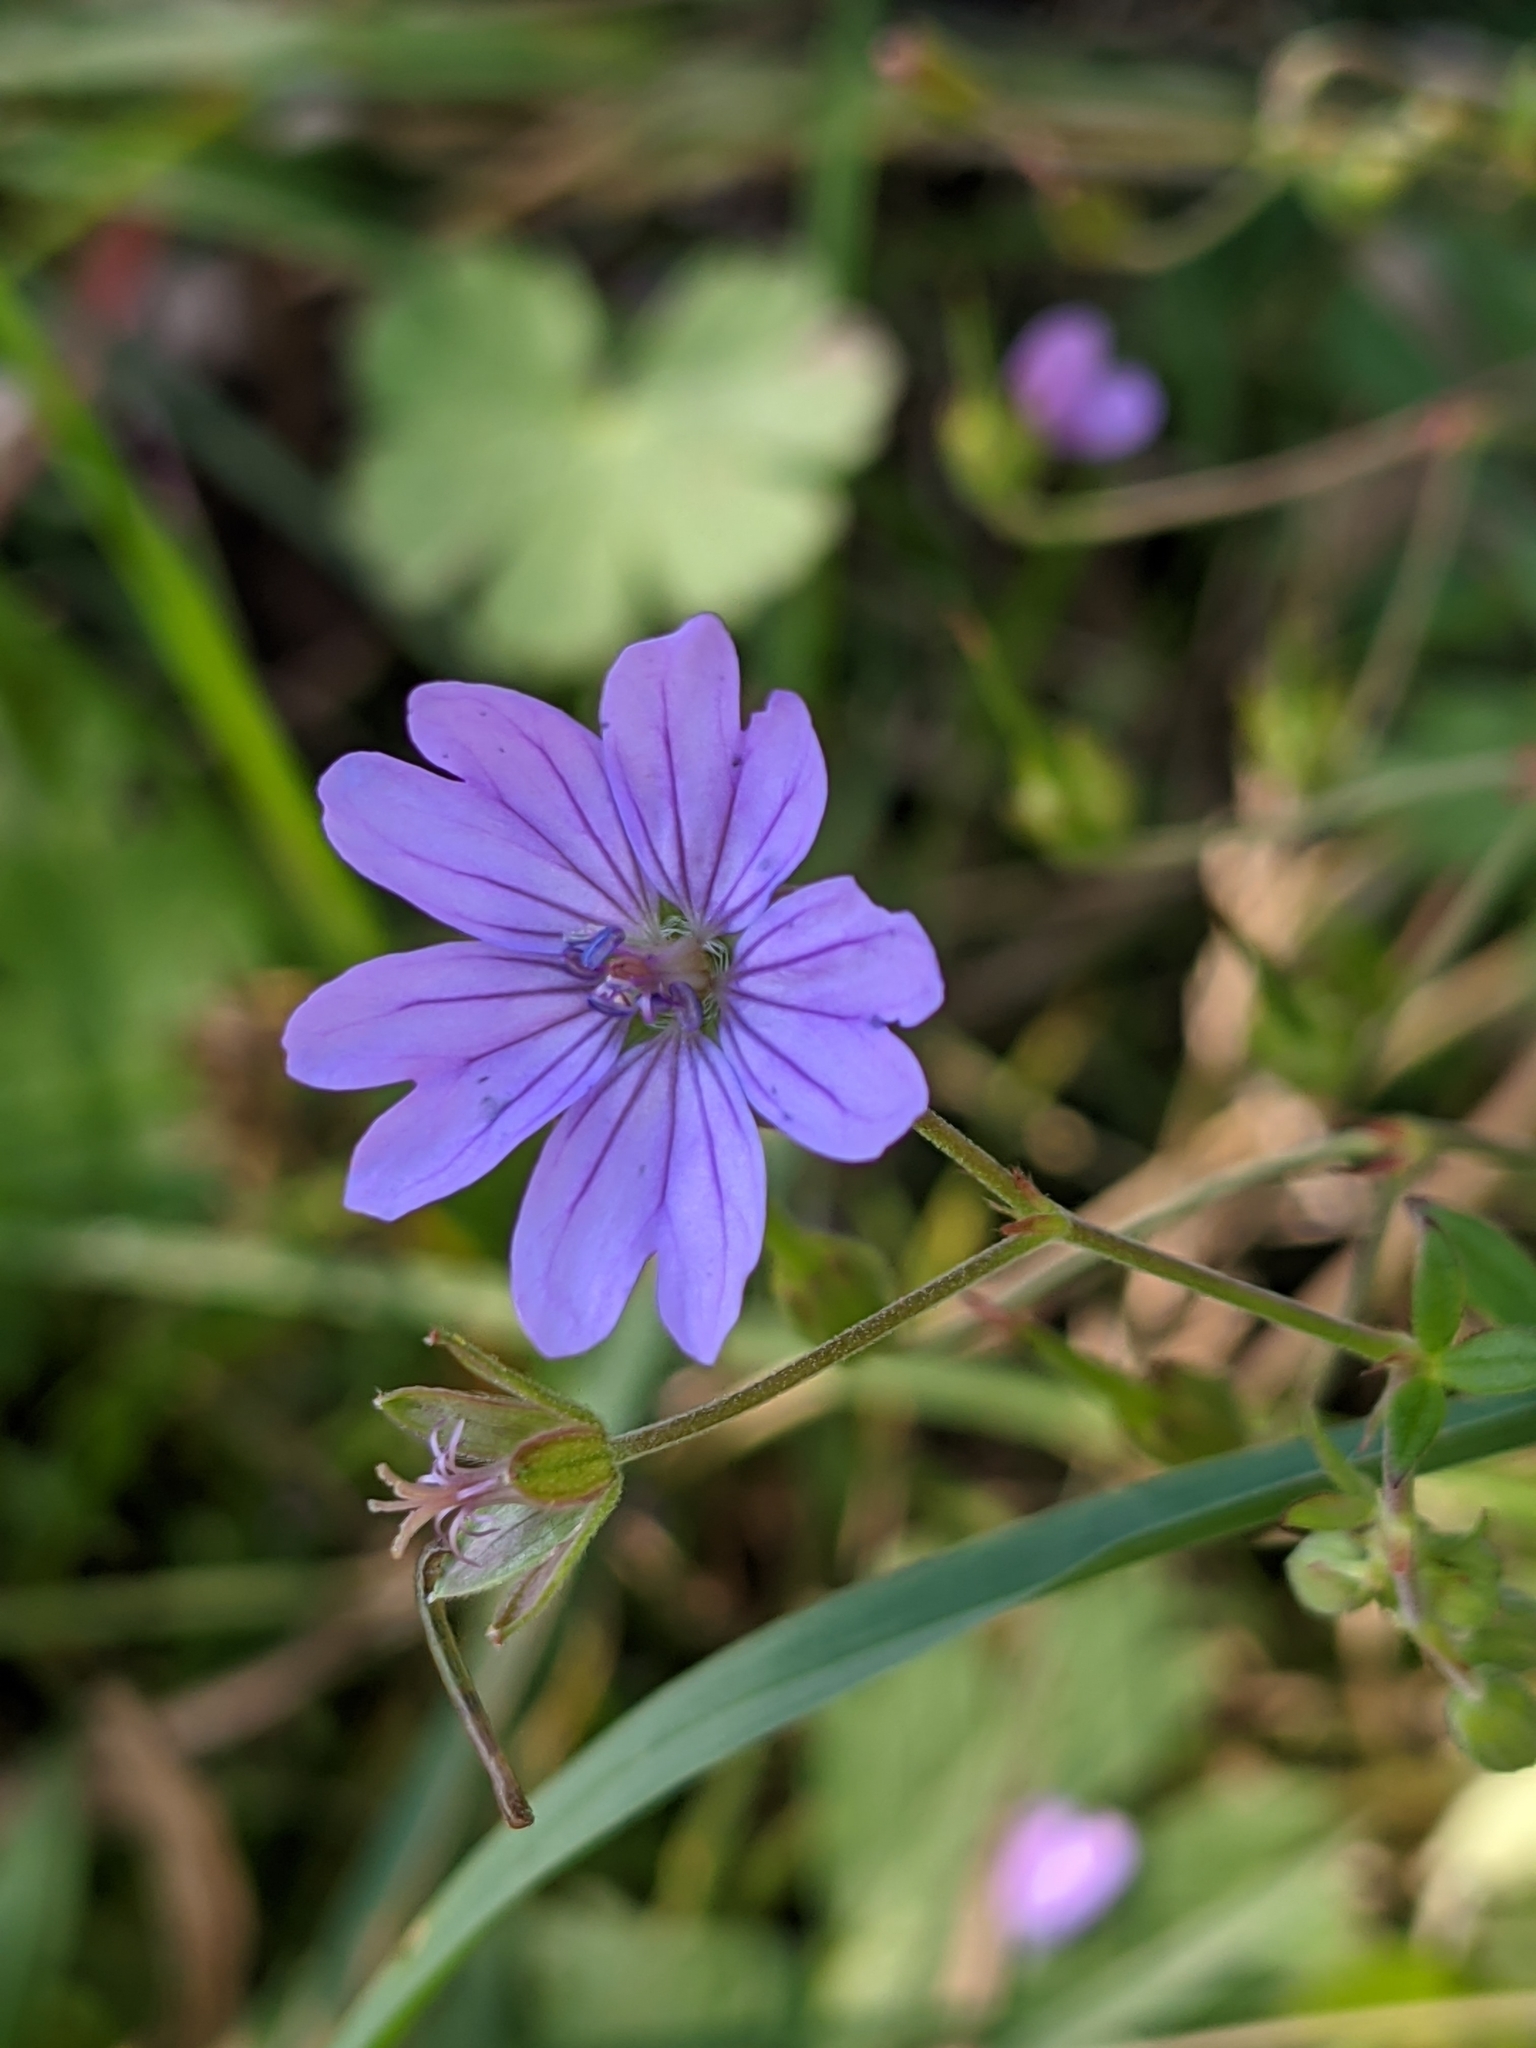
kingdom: Plantae
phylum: Tracheophyta
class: Magnoliopsida
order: Geraniales
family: Geraniaceae
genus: Geranium
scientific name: Geranium pyrenaicum
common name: Hedgerow crane's-bill
